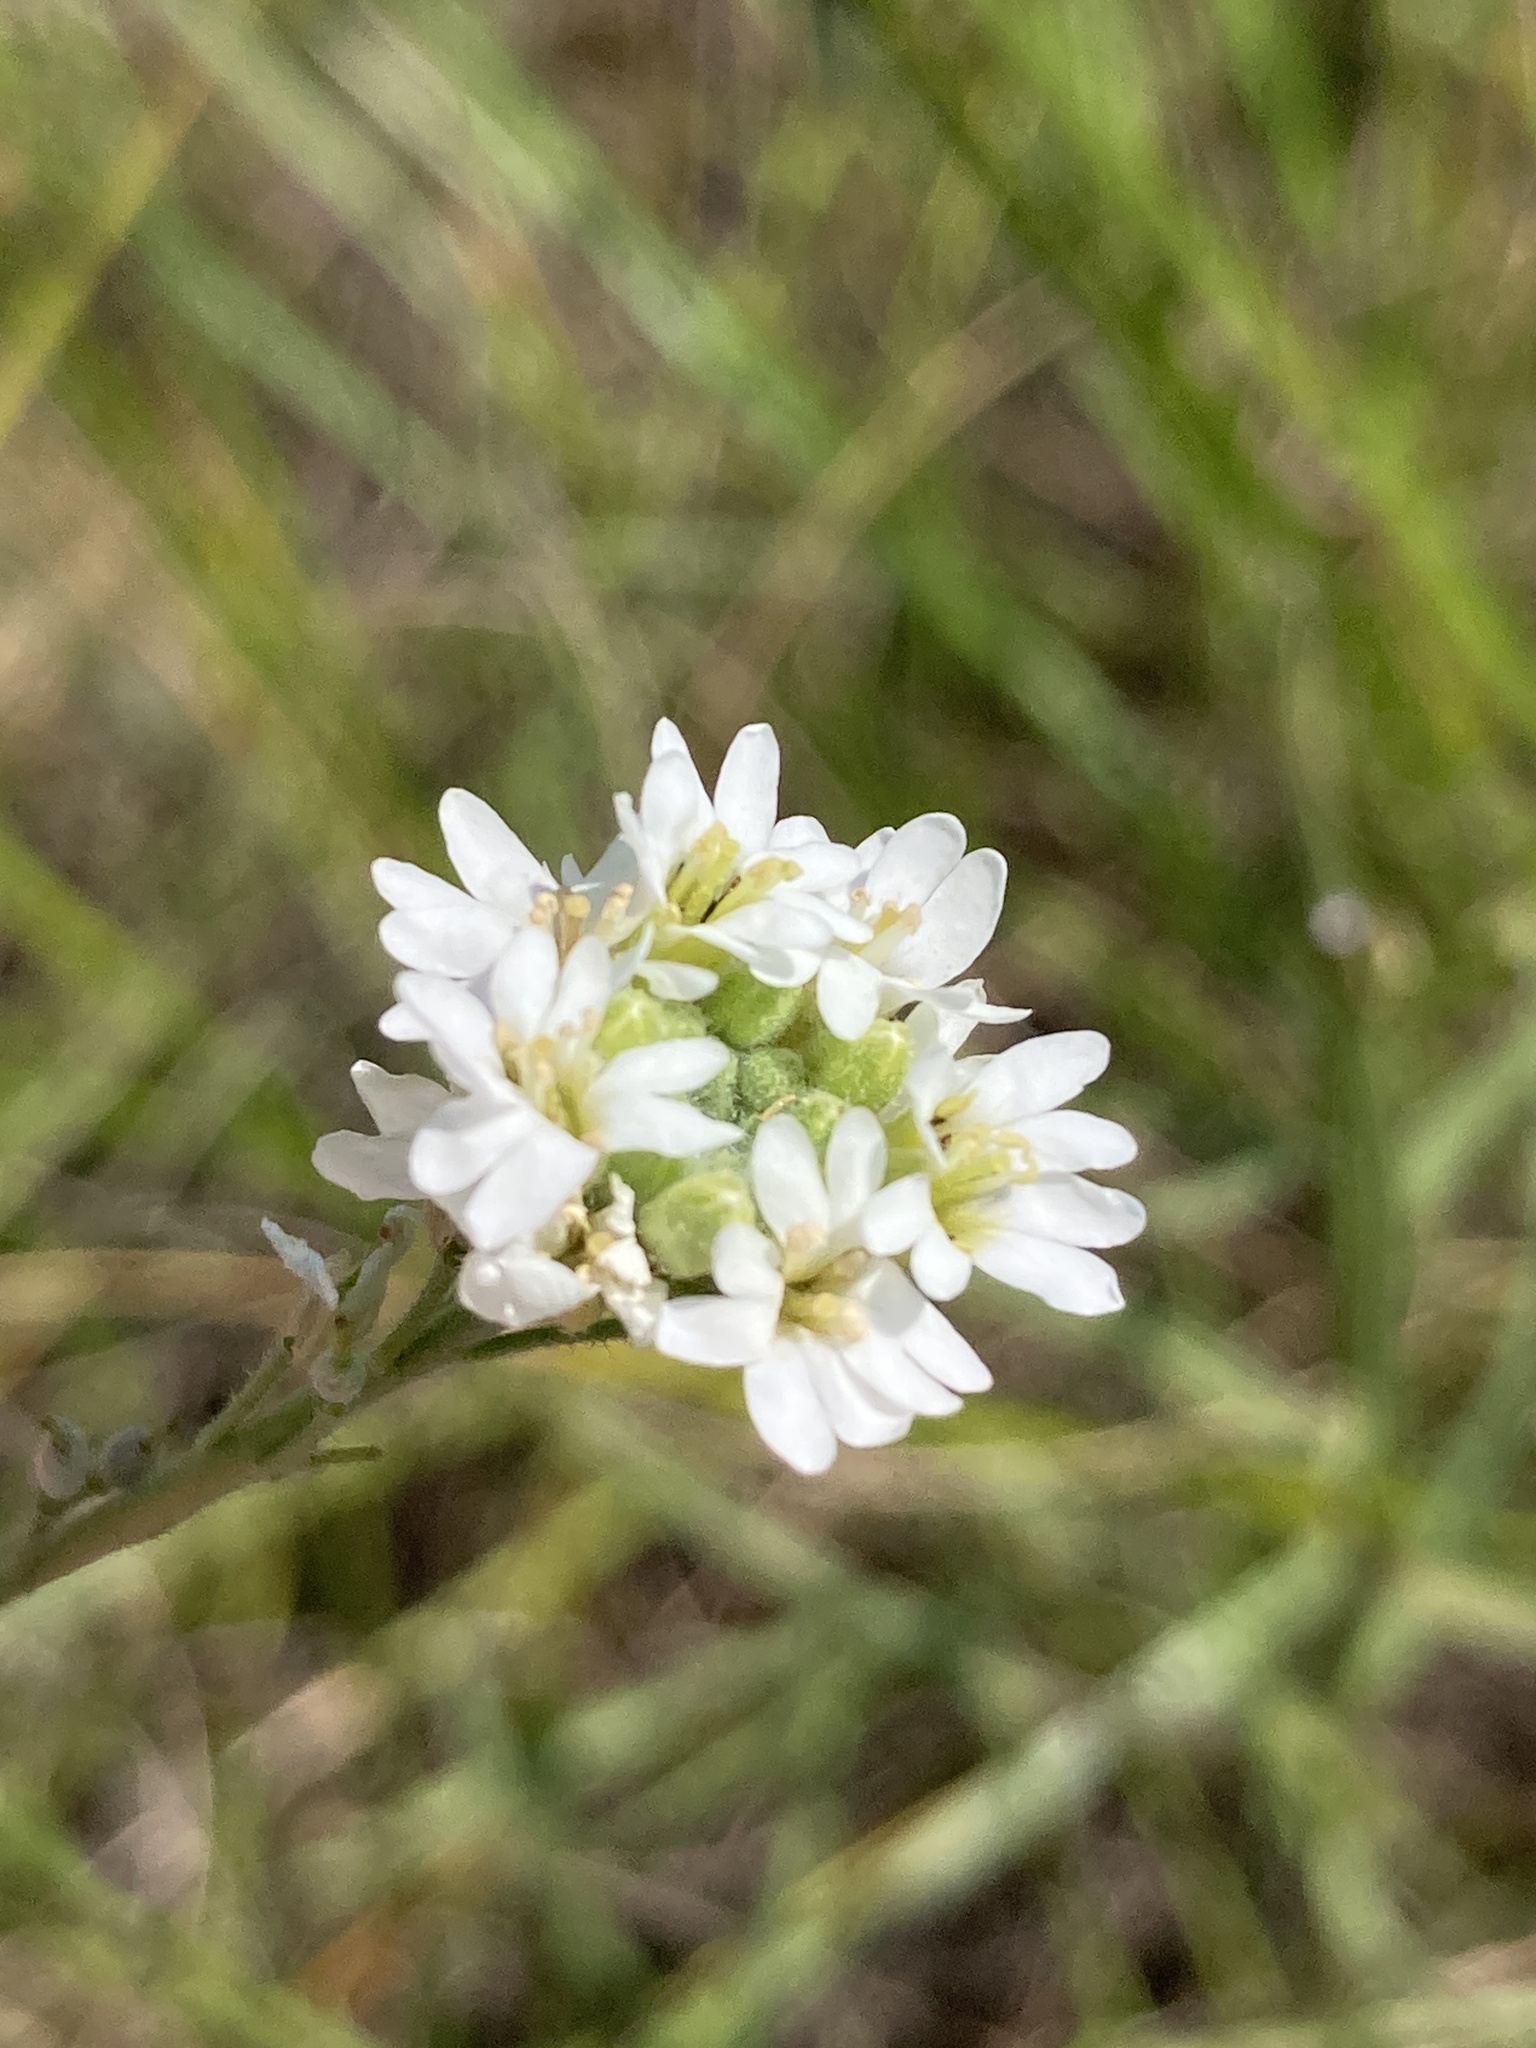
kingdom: Plantae
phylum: Tracheophyta
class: Magnoliopsida
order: Brassicales
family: Brassicaceae
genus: Berteroa
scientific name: Berteroa incana
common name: Hoary alison
